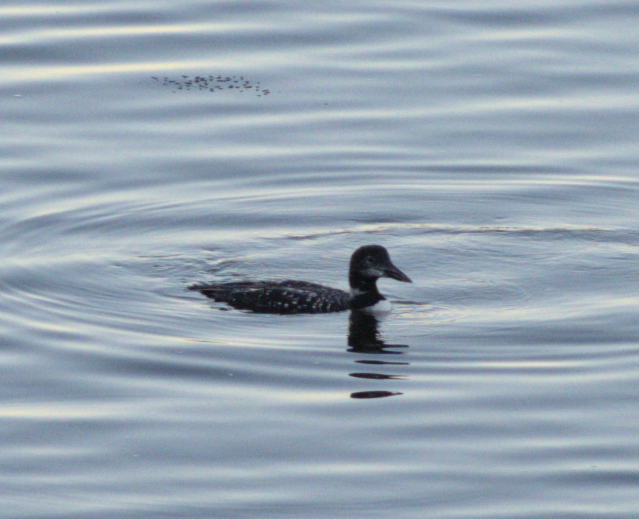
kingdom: Animalia
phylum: Chordata
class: Aves
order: Gaviiformes
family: Gaviidae
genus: Gavia
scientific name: Gavia immer
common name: Common loon
